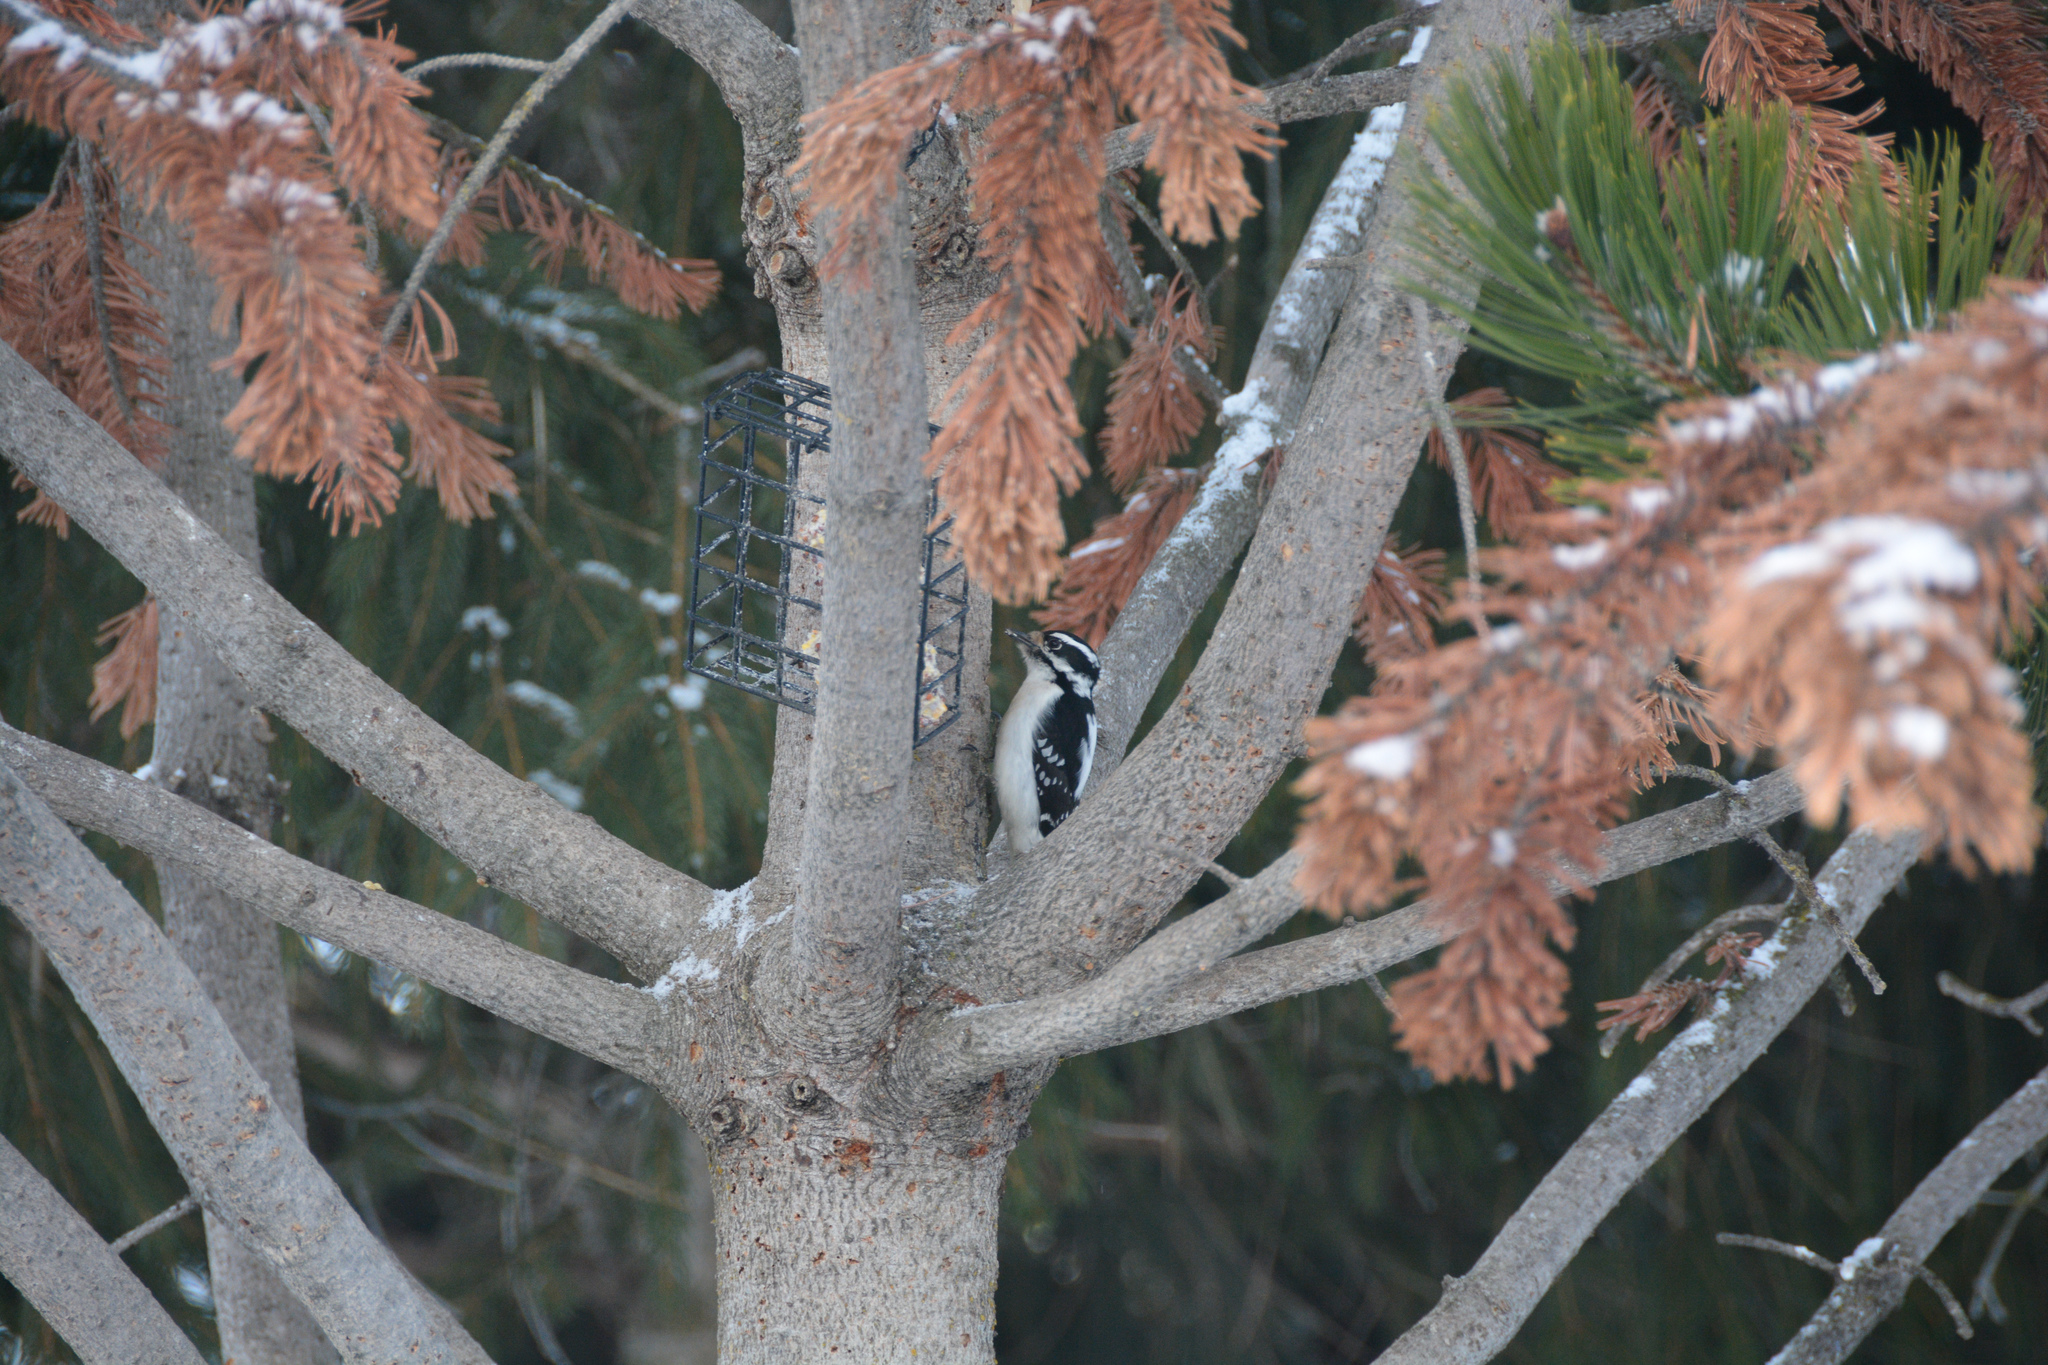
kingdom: Animalia
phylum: Chordata
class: Aves
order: Piciformes
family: Picidae
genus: Dryobates
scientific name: Dryobates pubescens
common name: Downy woodpecker
